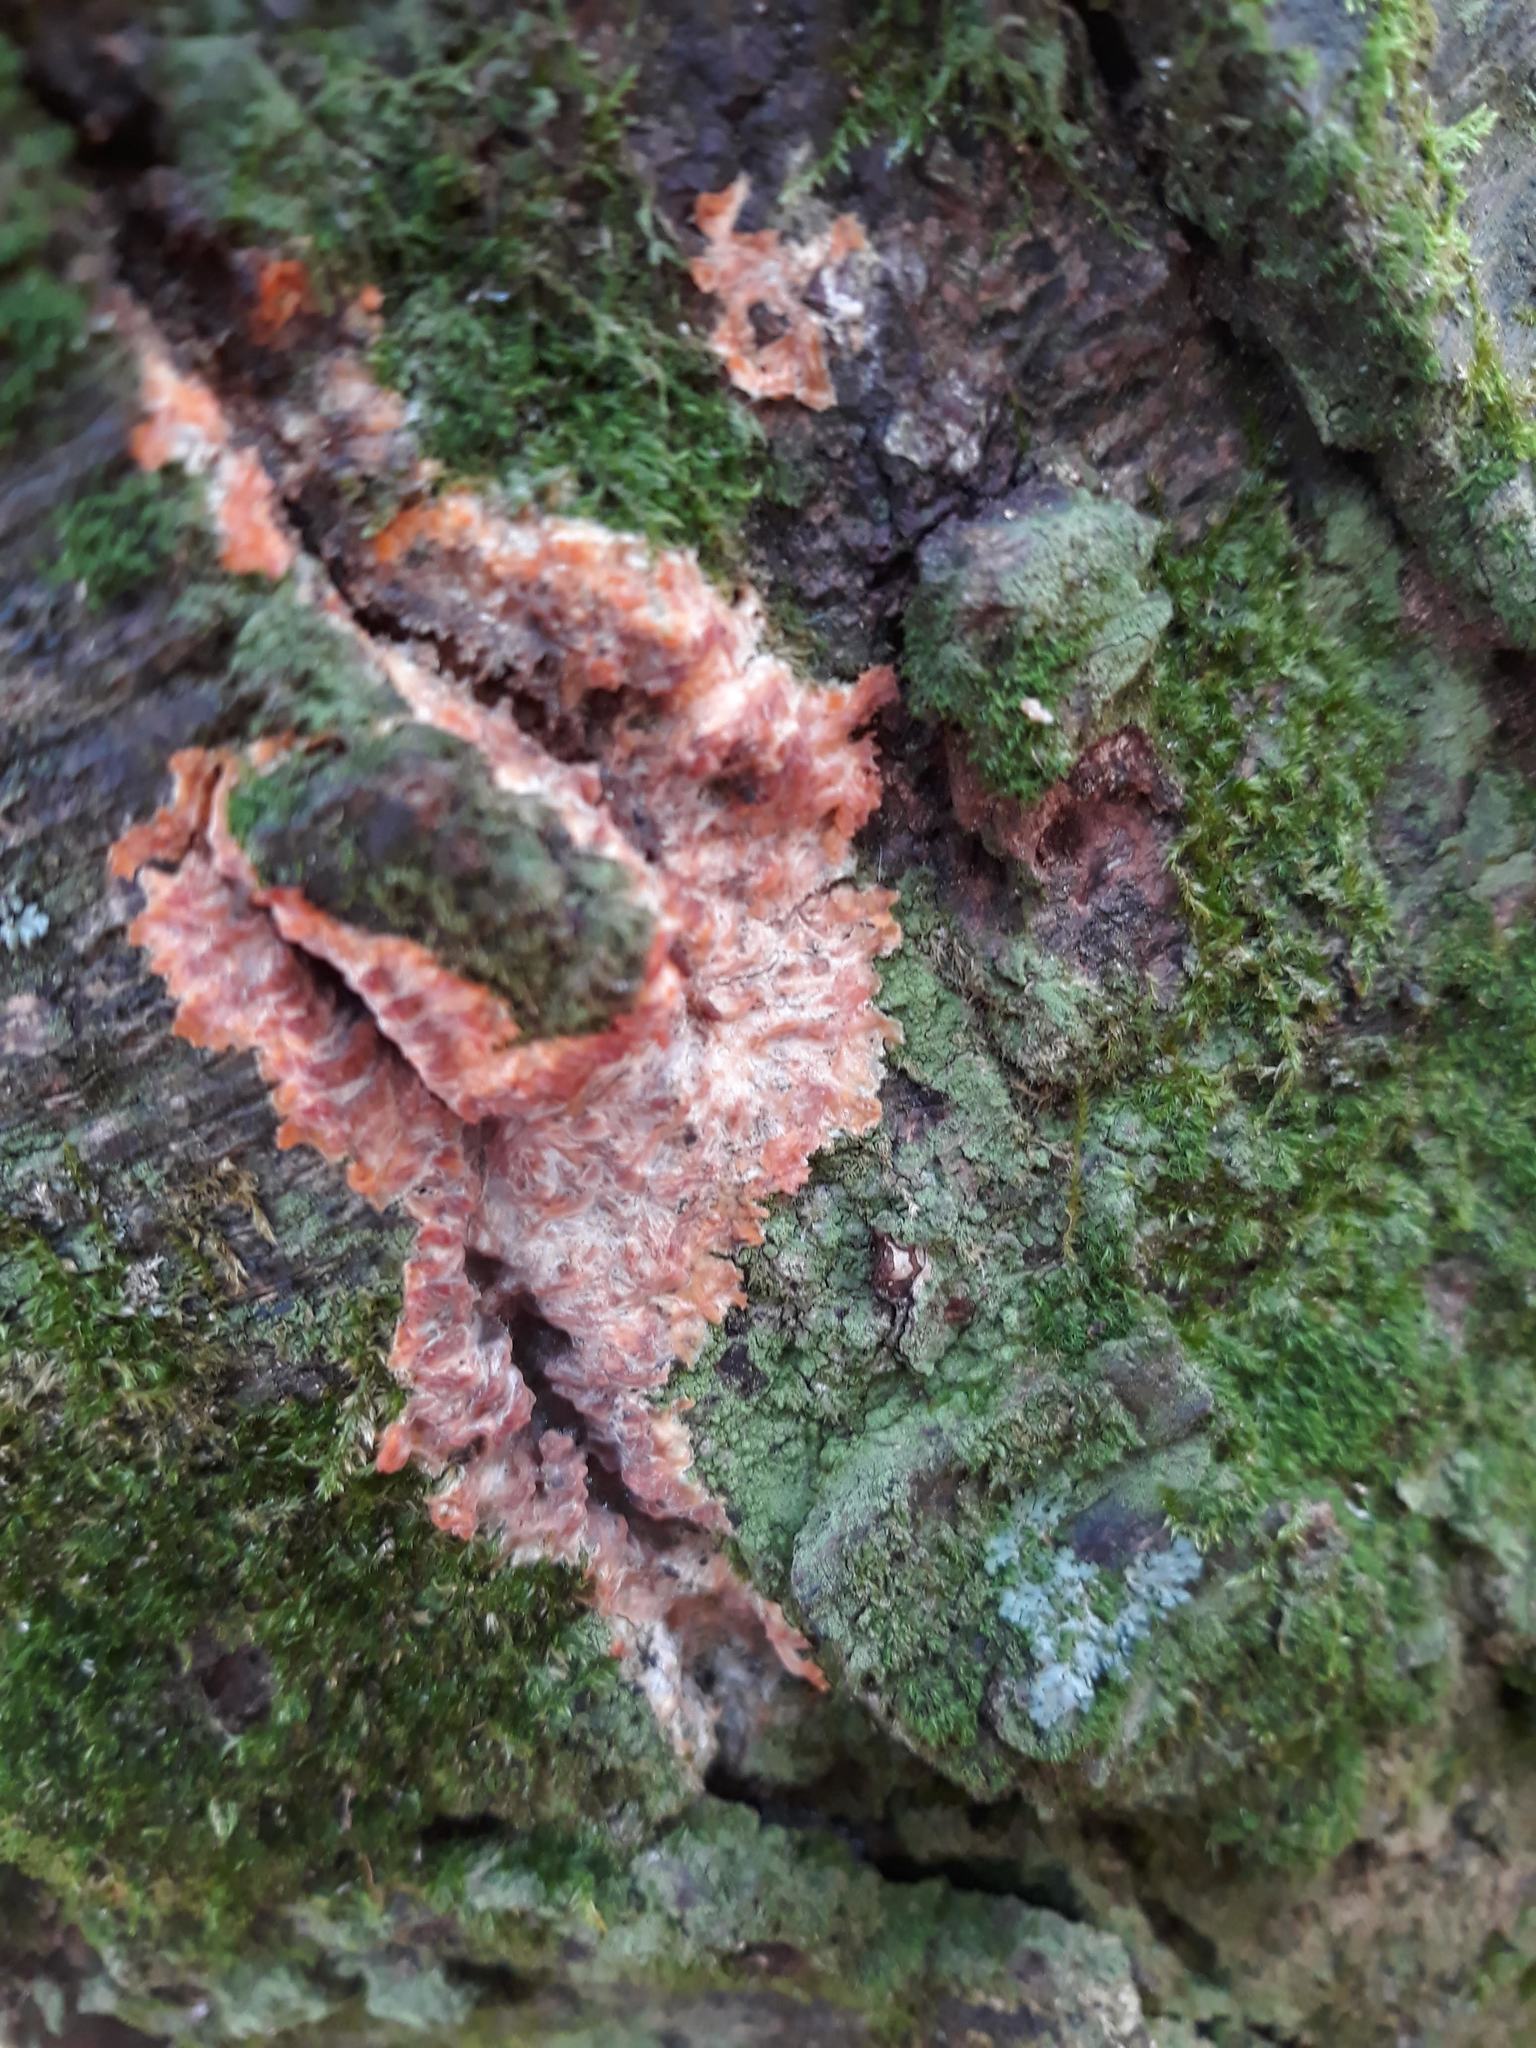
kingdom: Fungi
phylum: Basidiomycota
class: Agaricomycetes
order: Polyporales
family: Meruliaceae
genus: Phlebia
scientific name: Phlebia radiata
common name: Wrinkled crust
